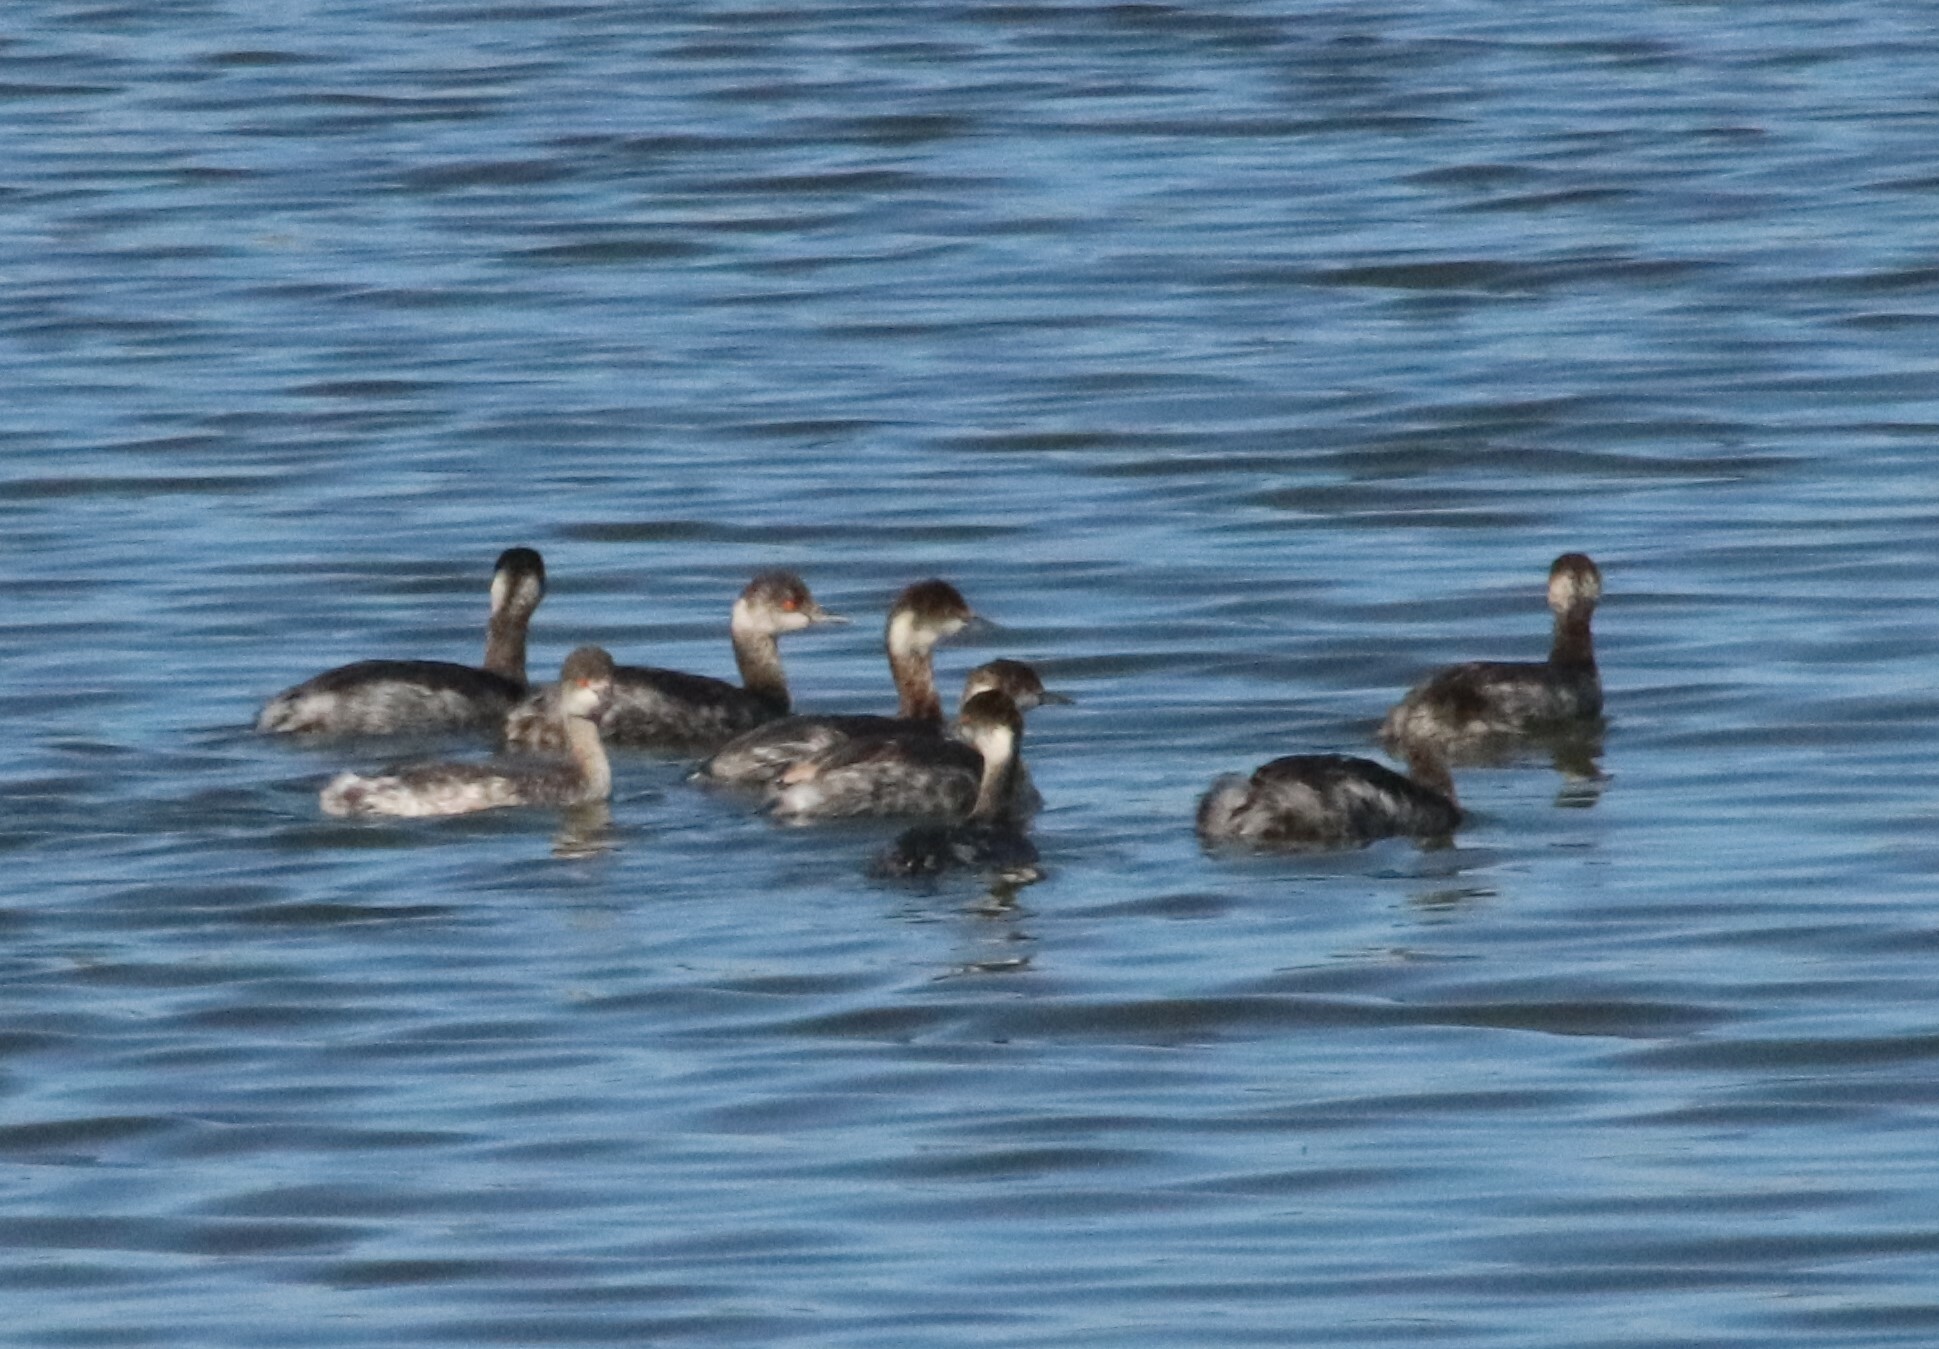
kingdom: Animalia
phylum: Chordata
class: Aves
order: Podicipediformes
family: Podicipedidae
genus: Podiceps
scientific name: Podiceps nigricollis
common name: Black-necked grebe
